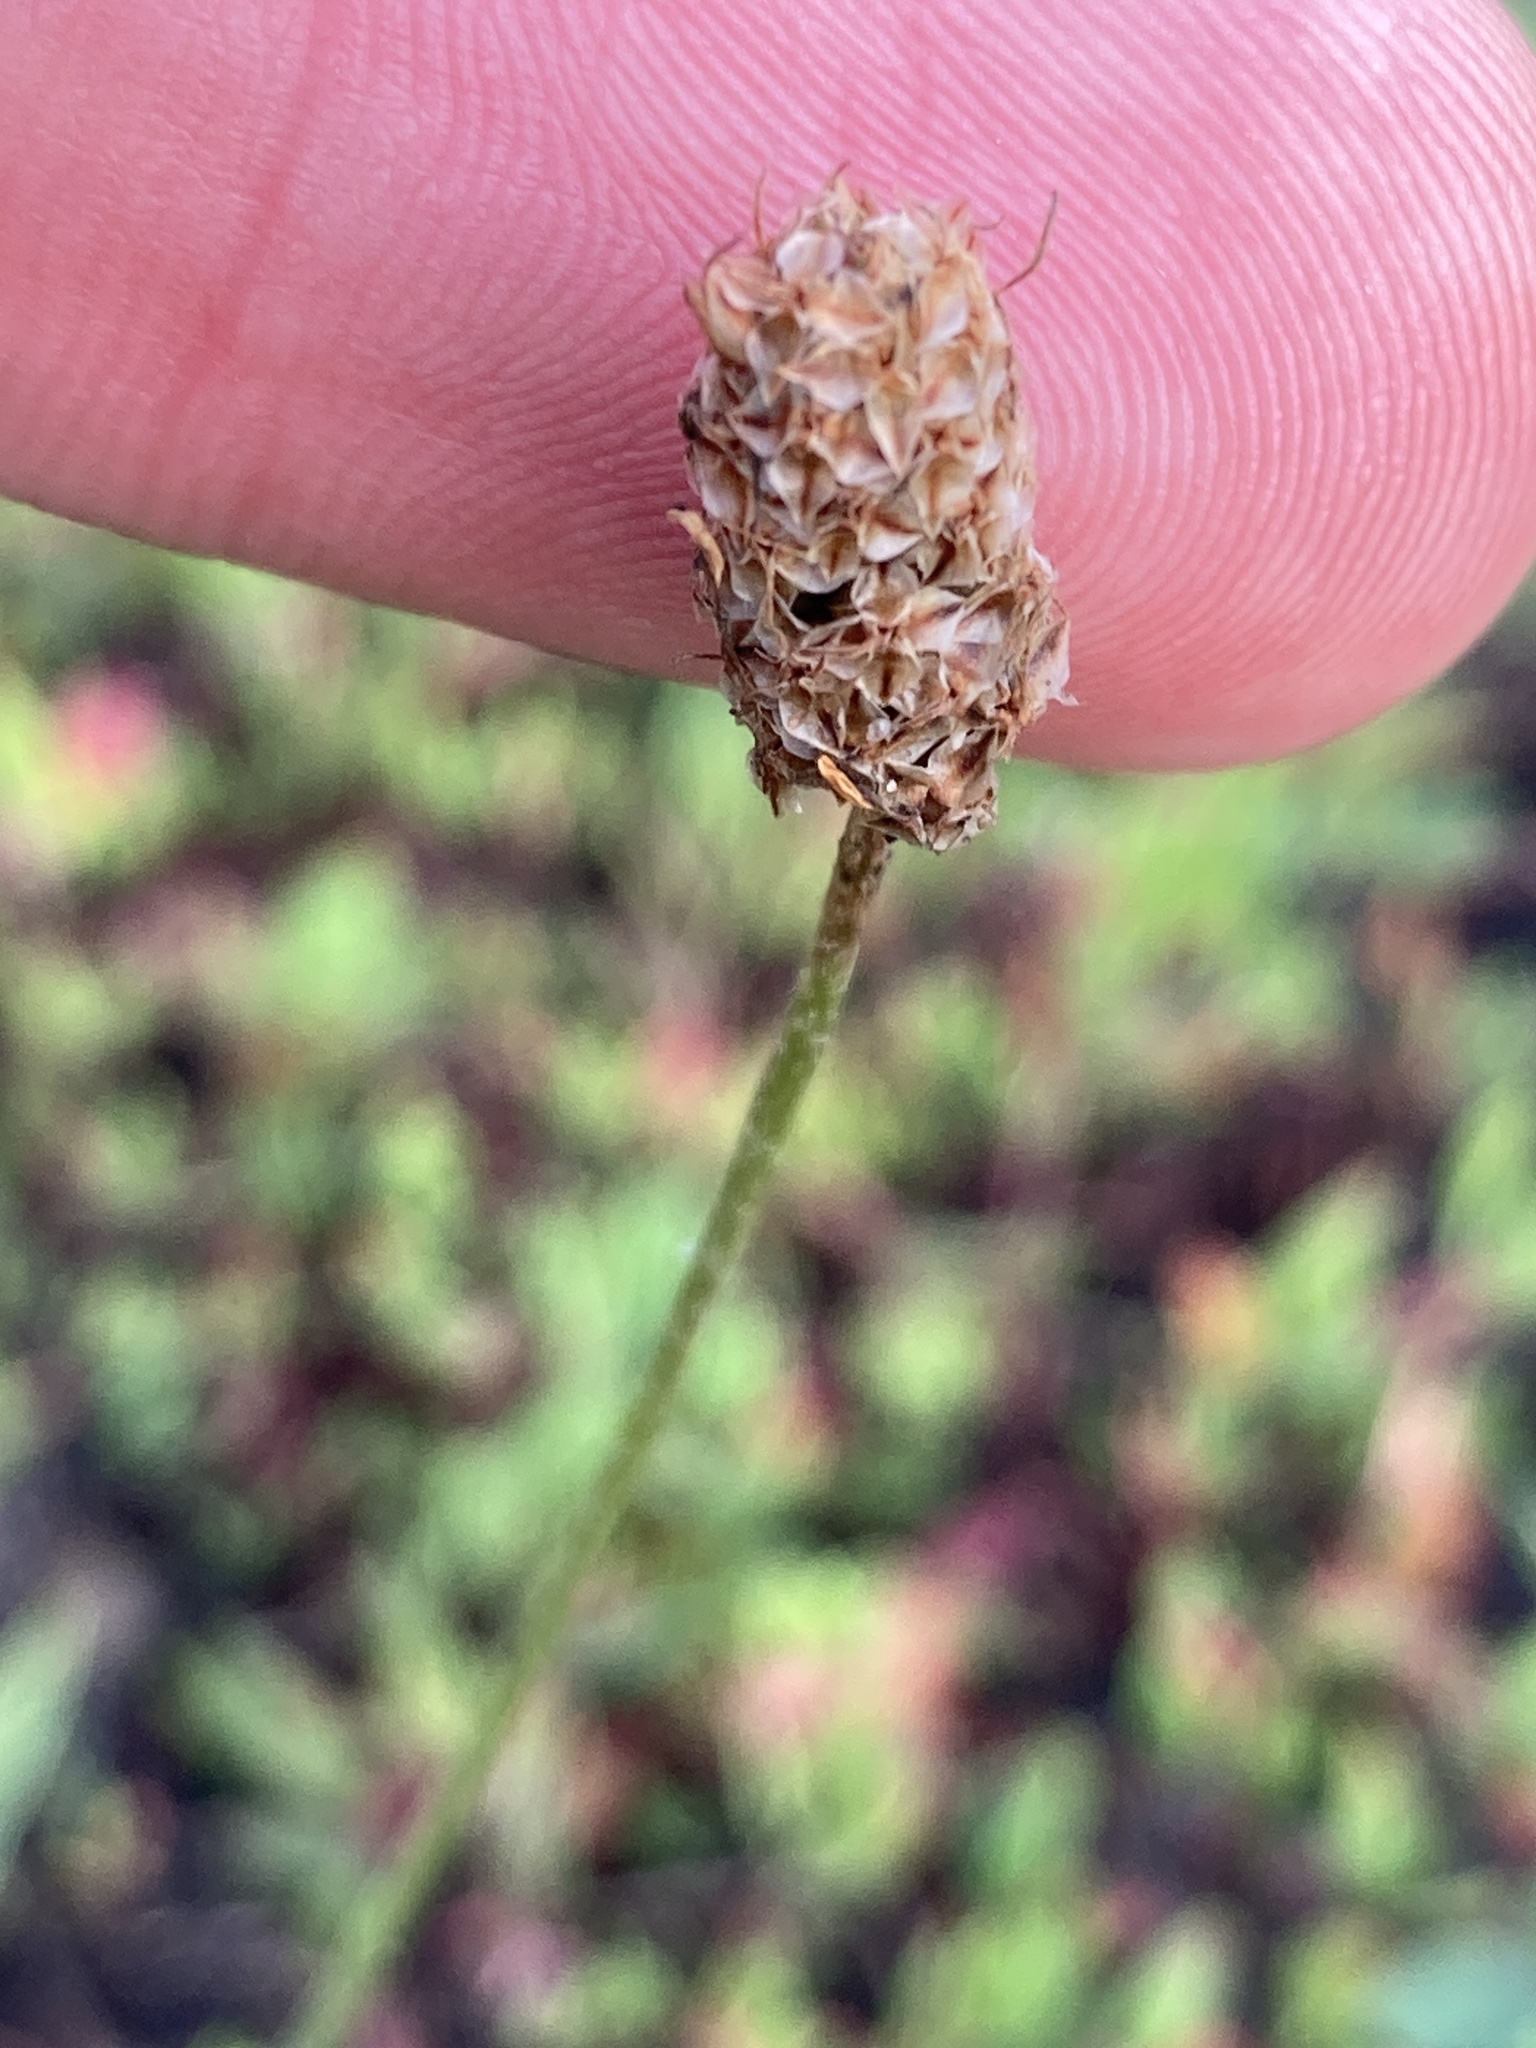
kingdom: Plantae
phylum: Tracheophyta
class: Magnoliopsida
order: Lamiales
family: Plantaginaceae
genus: Plantago
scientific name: Plantago lanceolata
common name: Ribwort plantain
